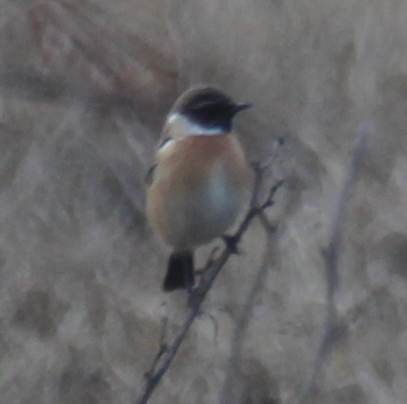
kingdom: Animalia
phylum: Chordata
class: Aves
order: Passeriformes
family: Muscicapidae
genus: Saxicola
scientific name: Saxicola rubicola
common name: European stonechat
